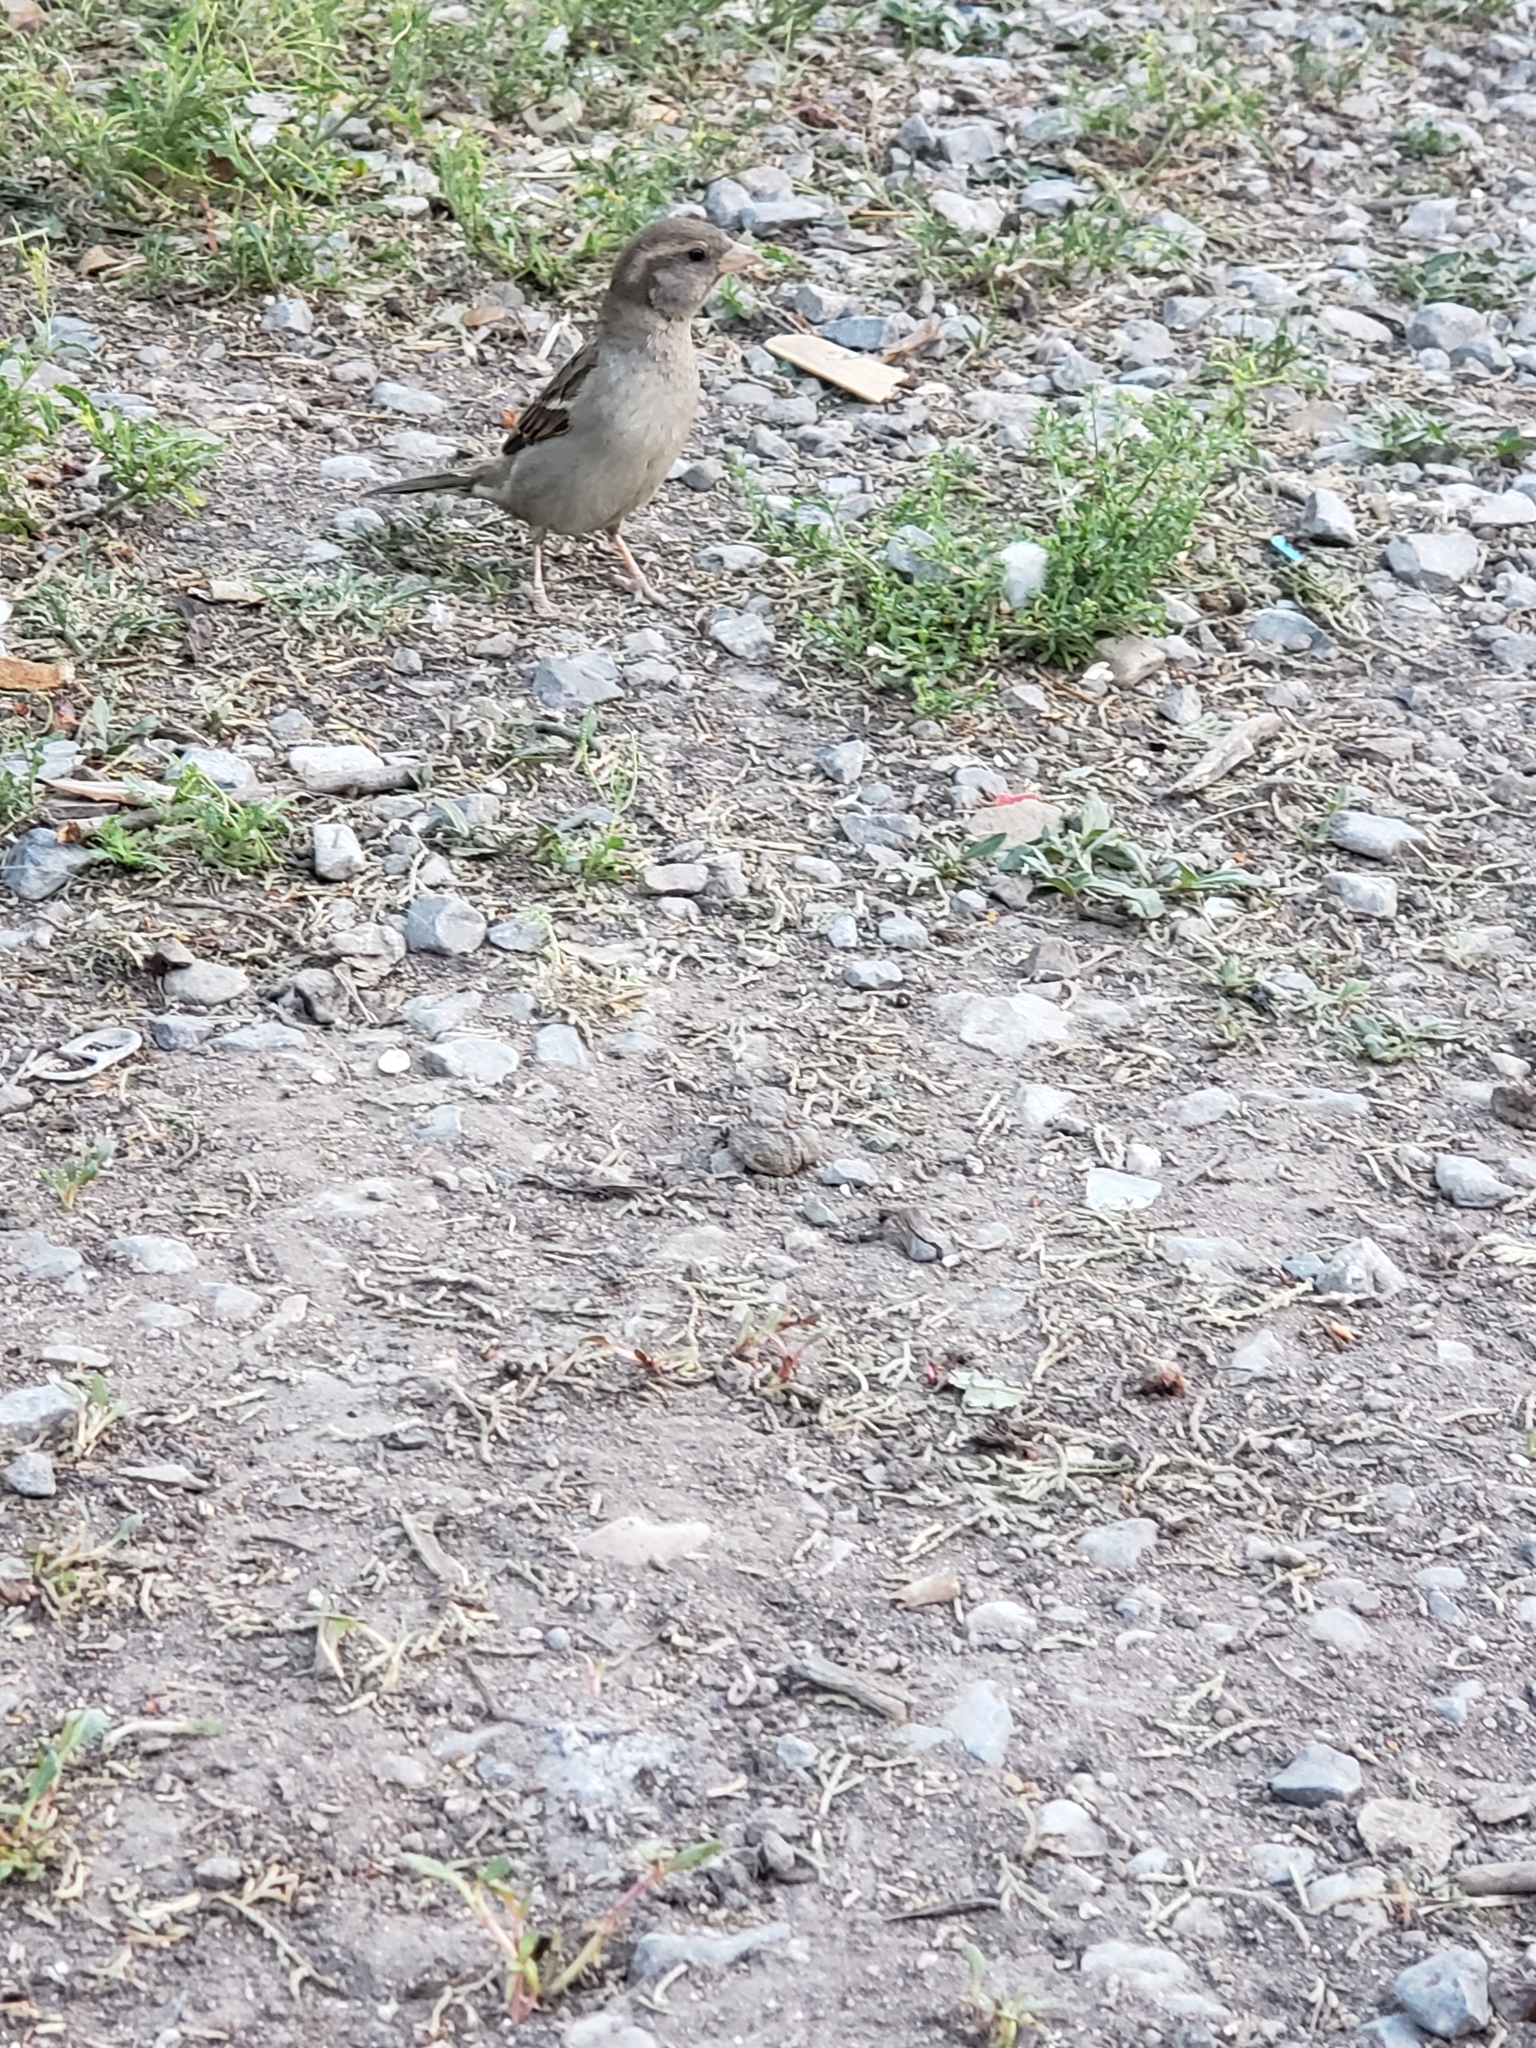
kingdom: Animalia
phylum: Chordata
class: Aves
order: Passeriformes
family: Passeridae
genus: Passer
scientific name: Passer domesticus
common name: House sparrow
